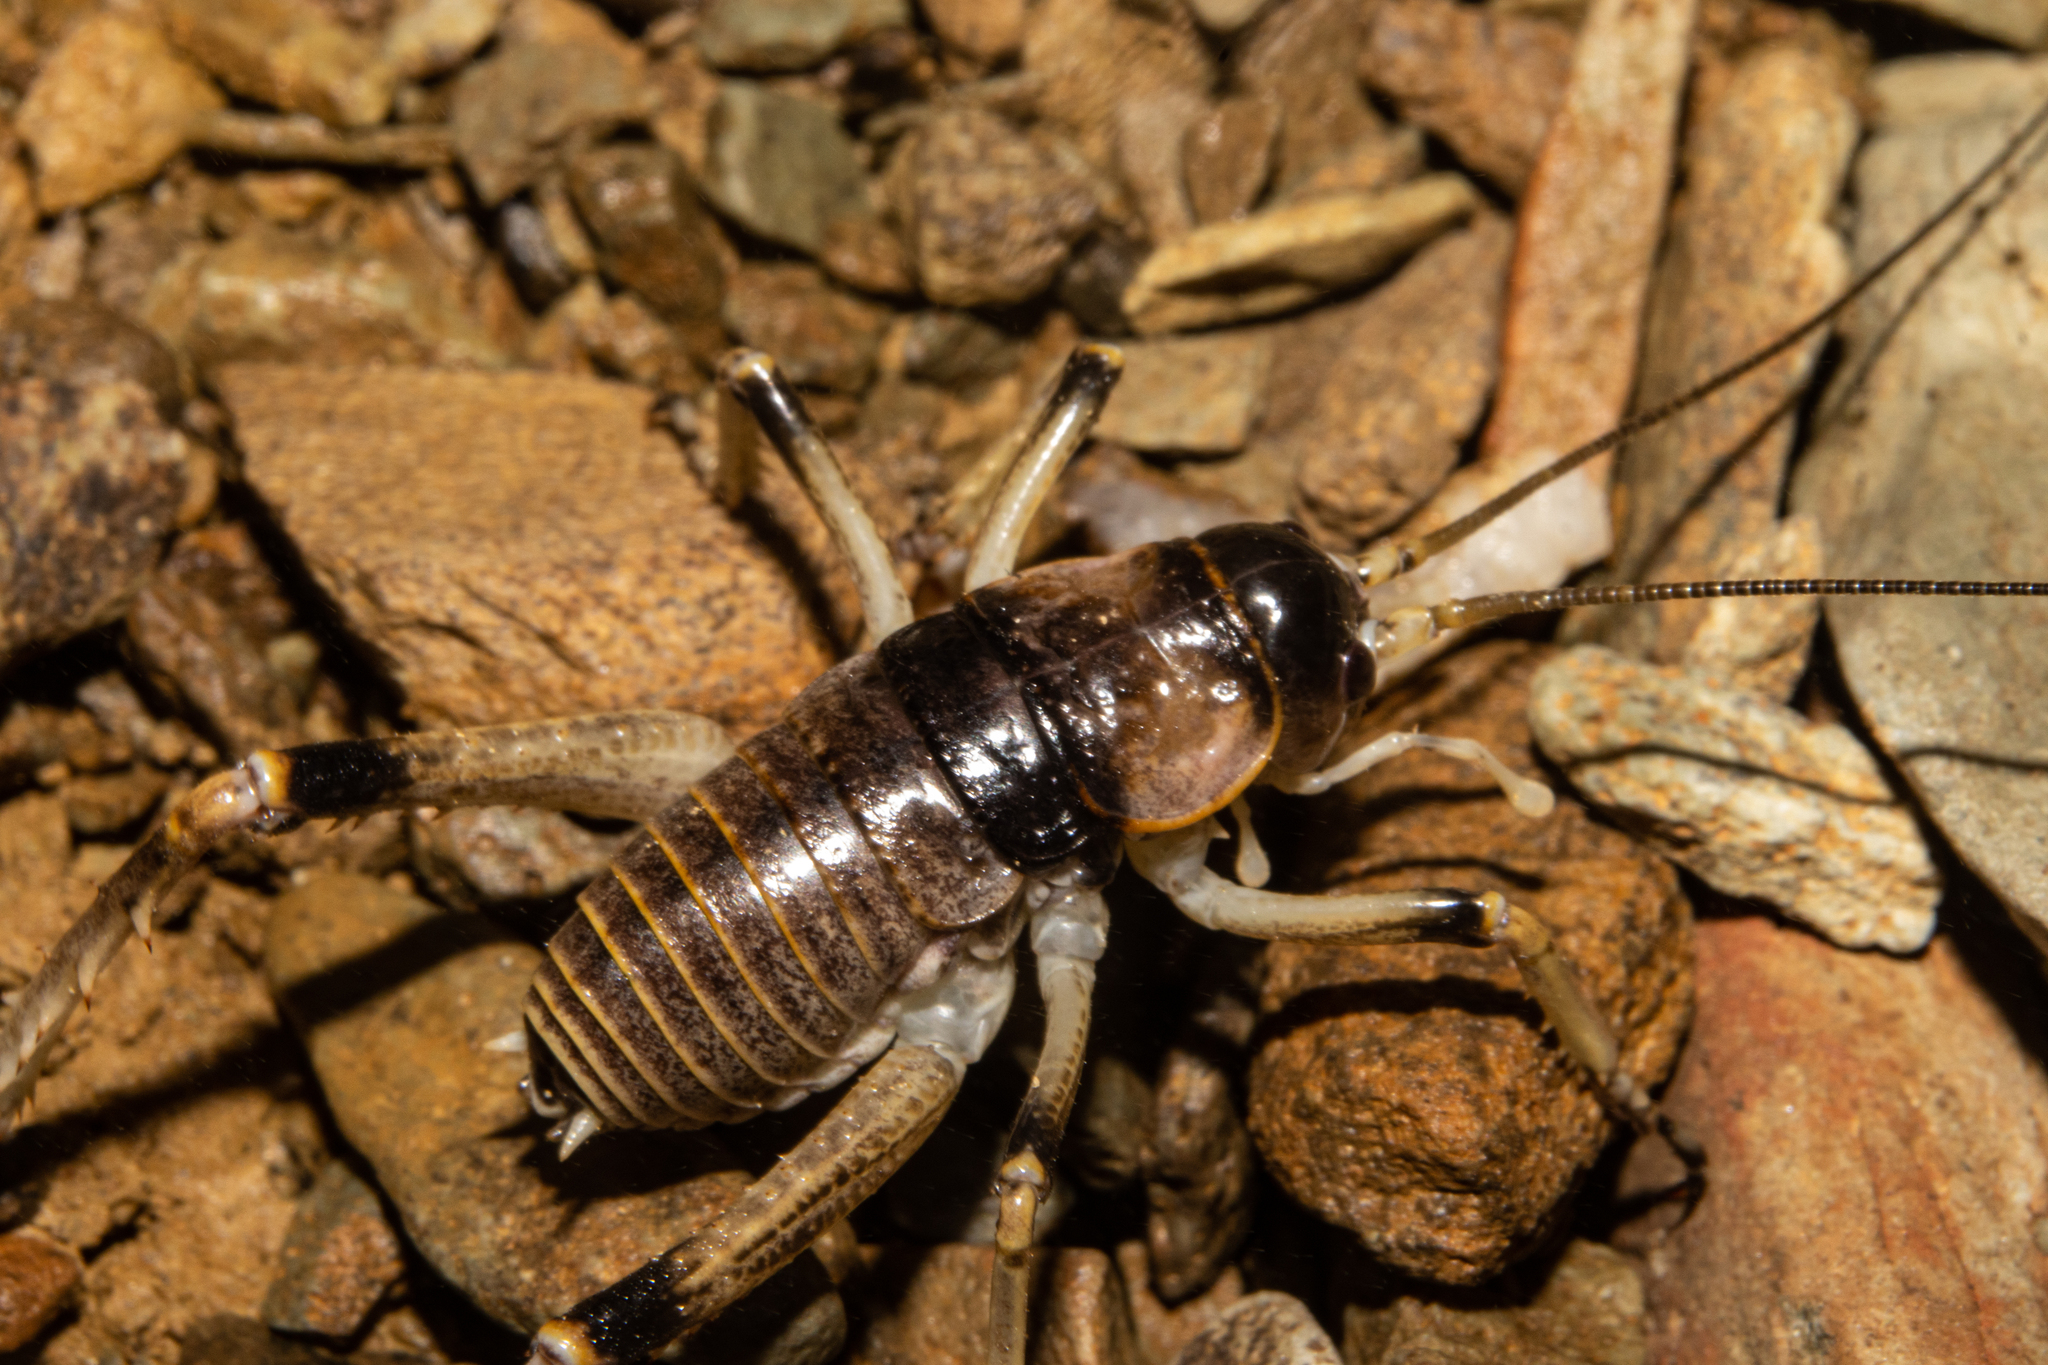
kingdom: Animalia
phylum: Arthropoda
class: Insecta
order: Orthoptera
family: Anostostomatidae
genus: Deinacrida
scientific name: Deinacrida connectens
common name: Scree weta
